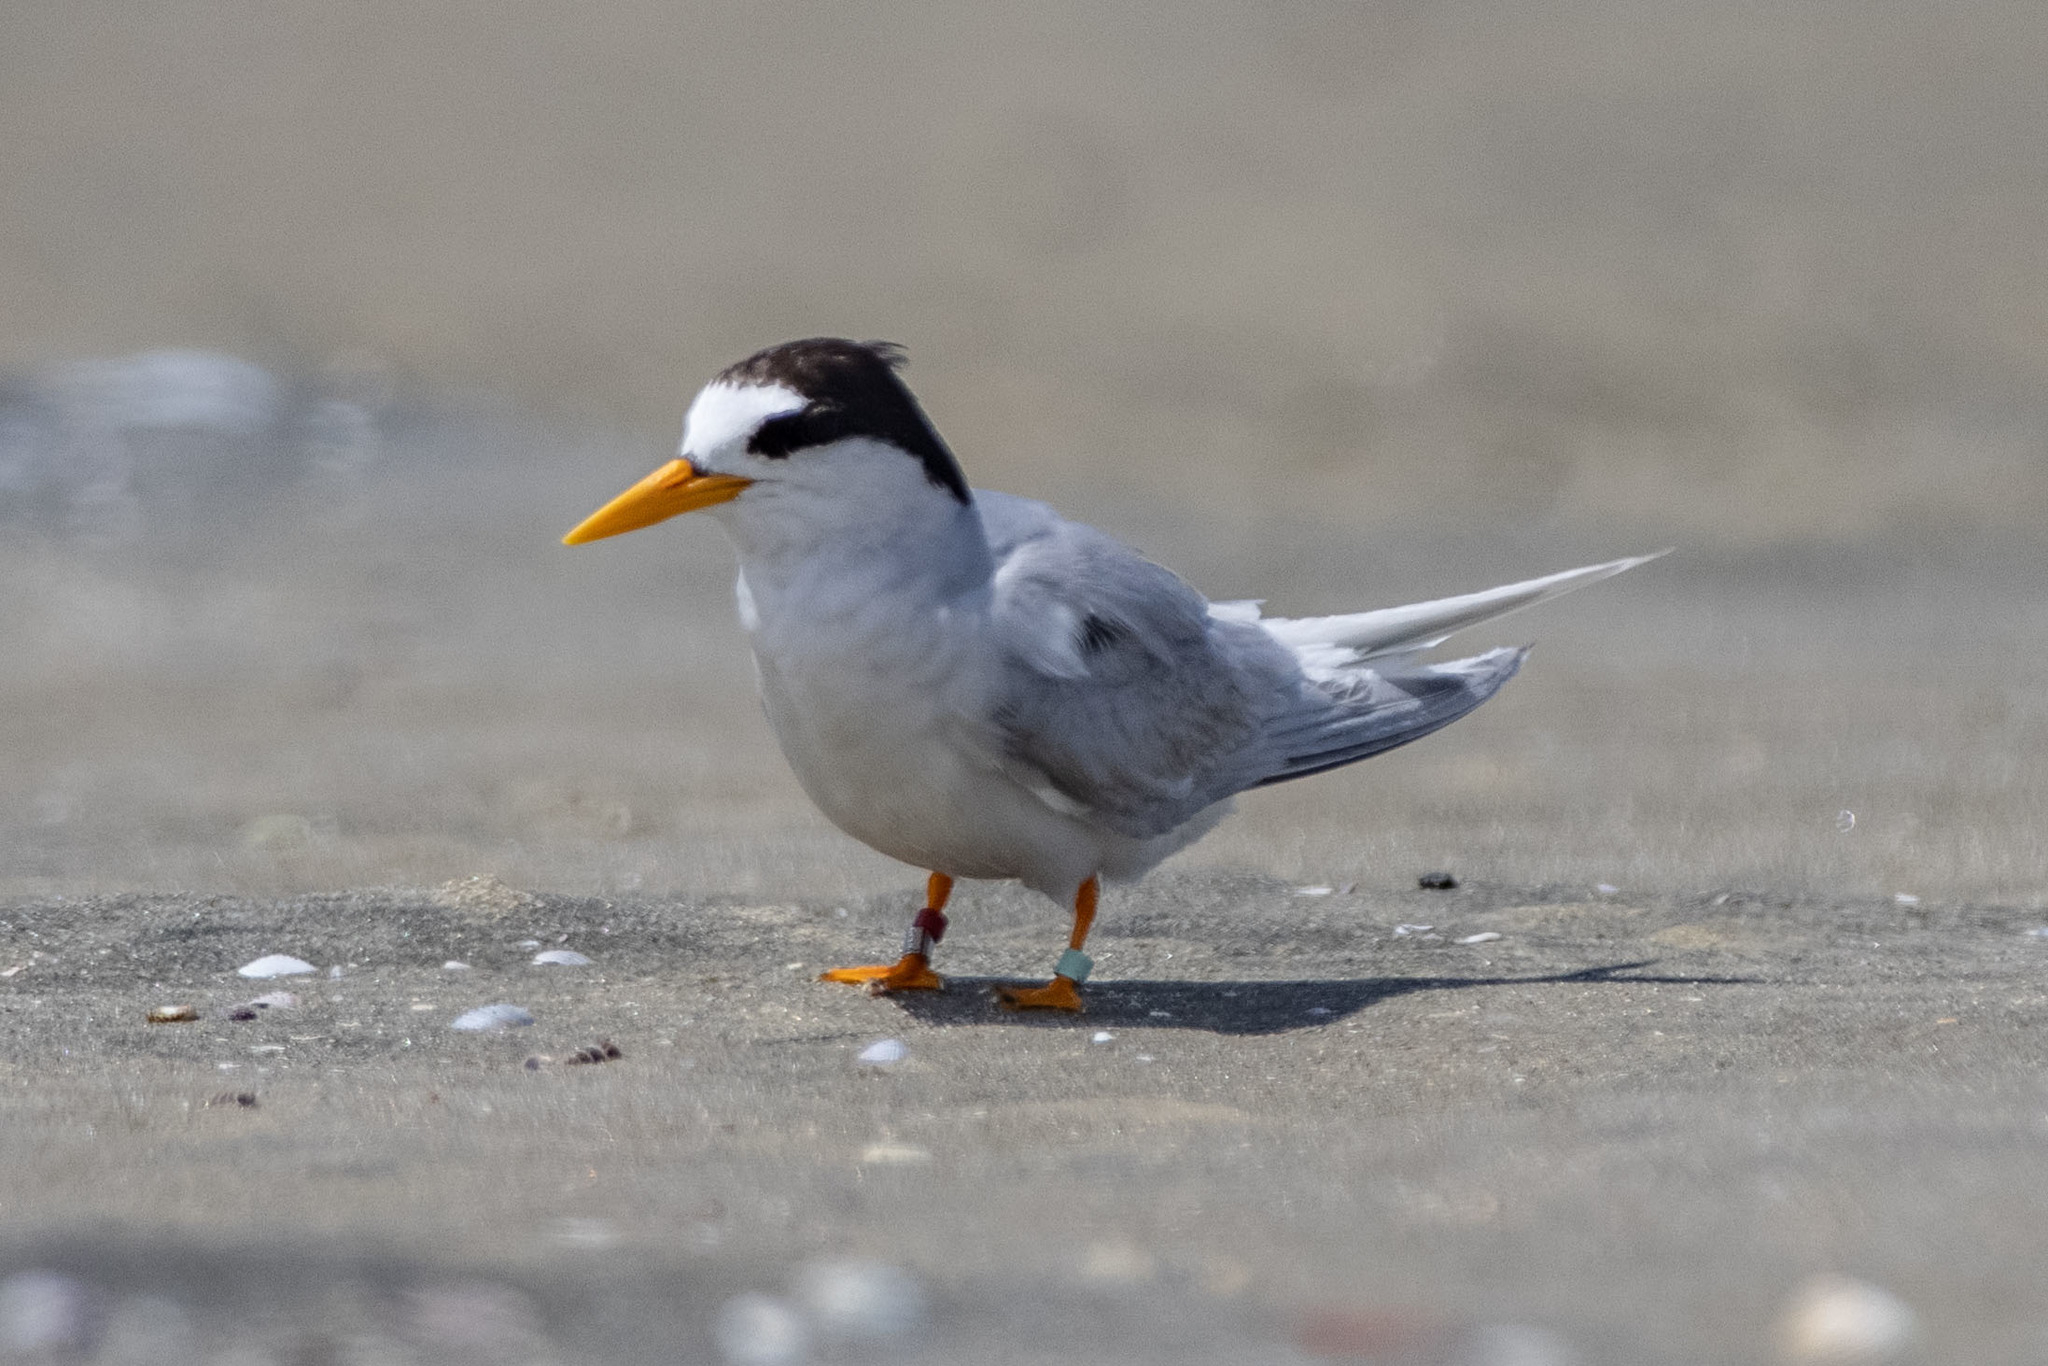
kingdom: Animalia
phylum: Chordata
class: Aves
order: Charadriiformes
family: Laridae
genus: Sternula
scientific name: Sternula nereis
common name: Fairy tern
